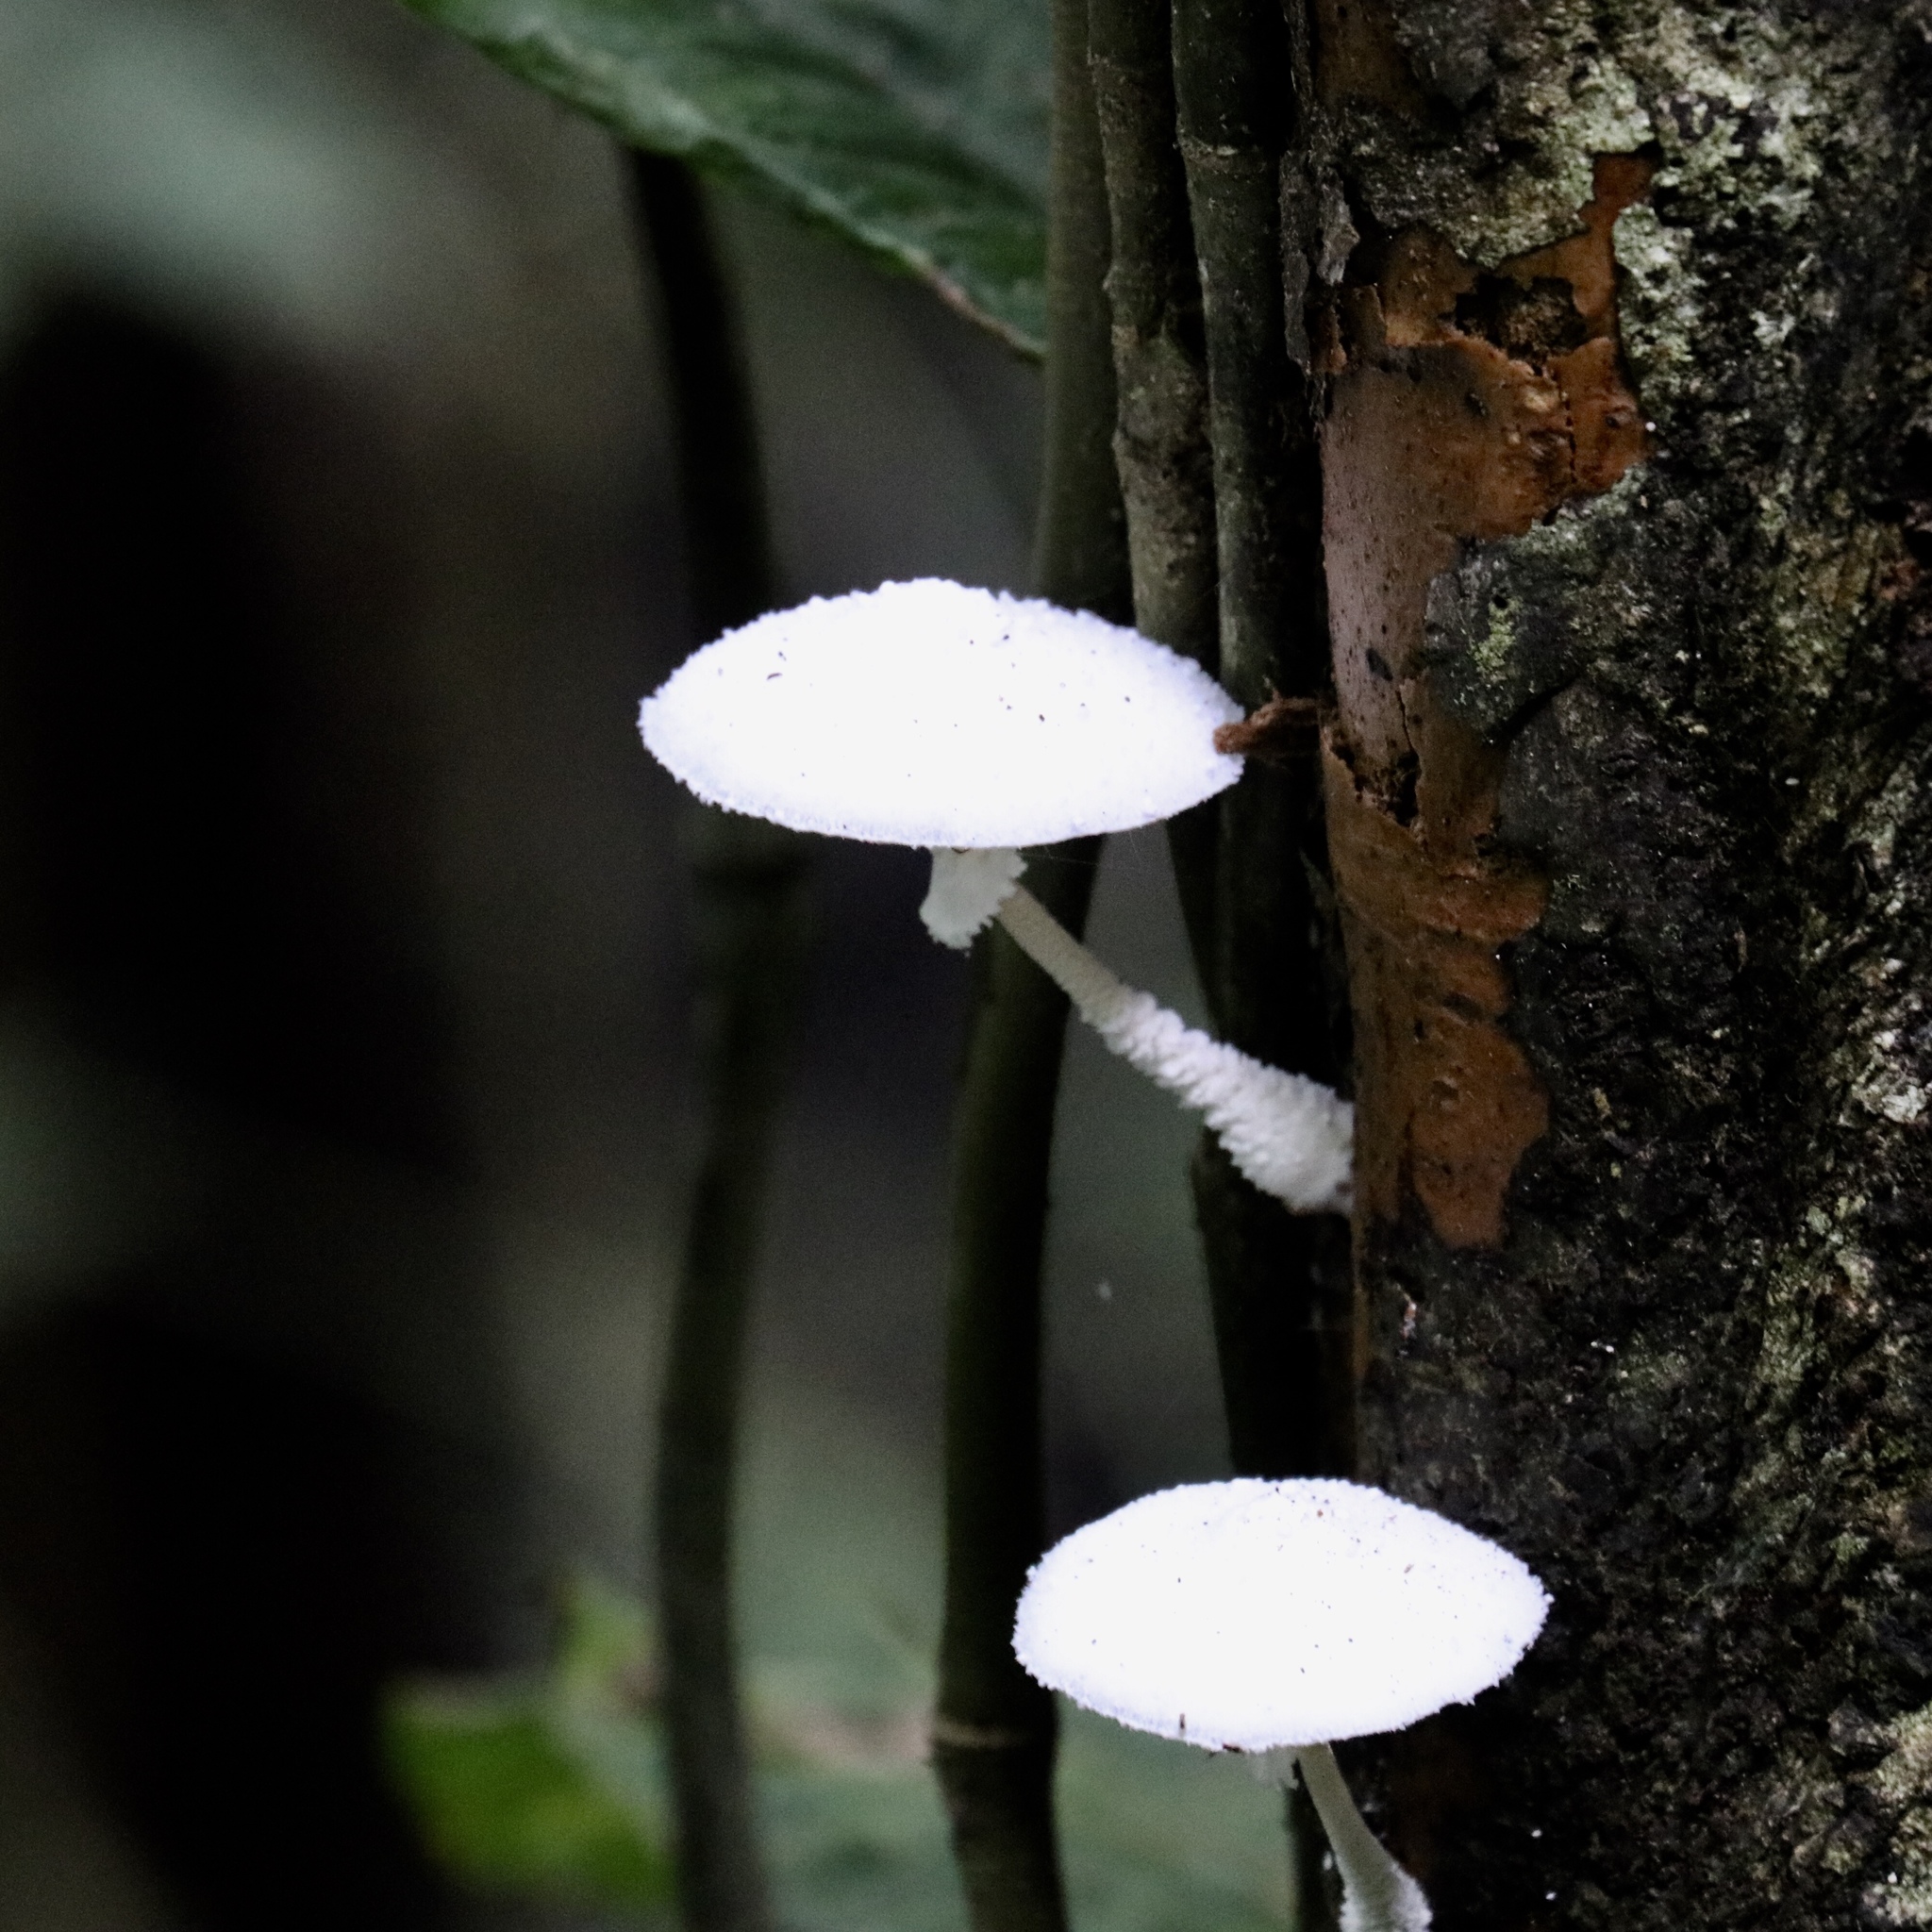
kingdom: Fungi
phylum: Basidiomycota
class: Agaricomycetes
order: Agaricales
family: Agaricaceae
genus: Leucocoprinus
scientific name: Leucocoprinus cretaceus
